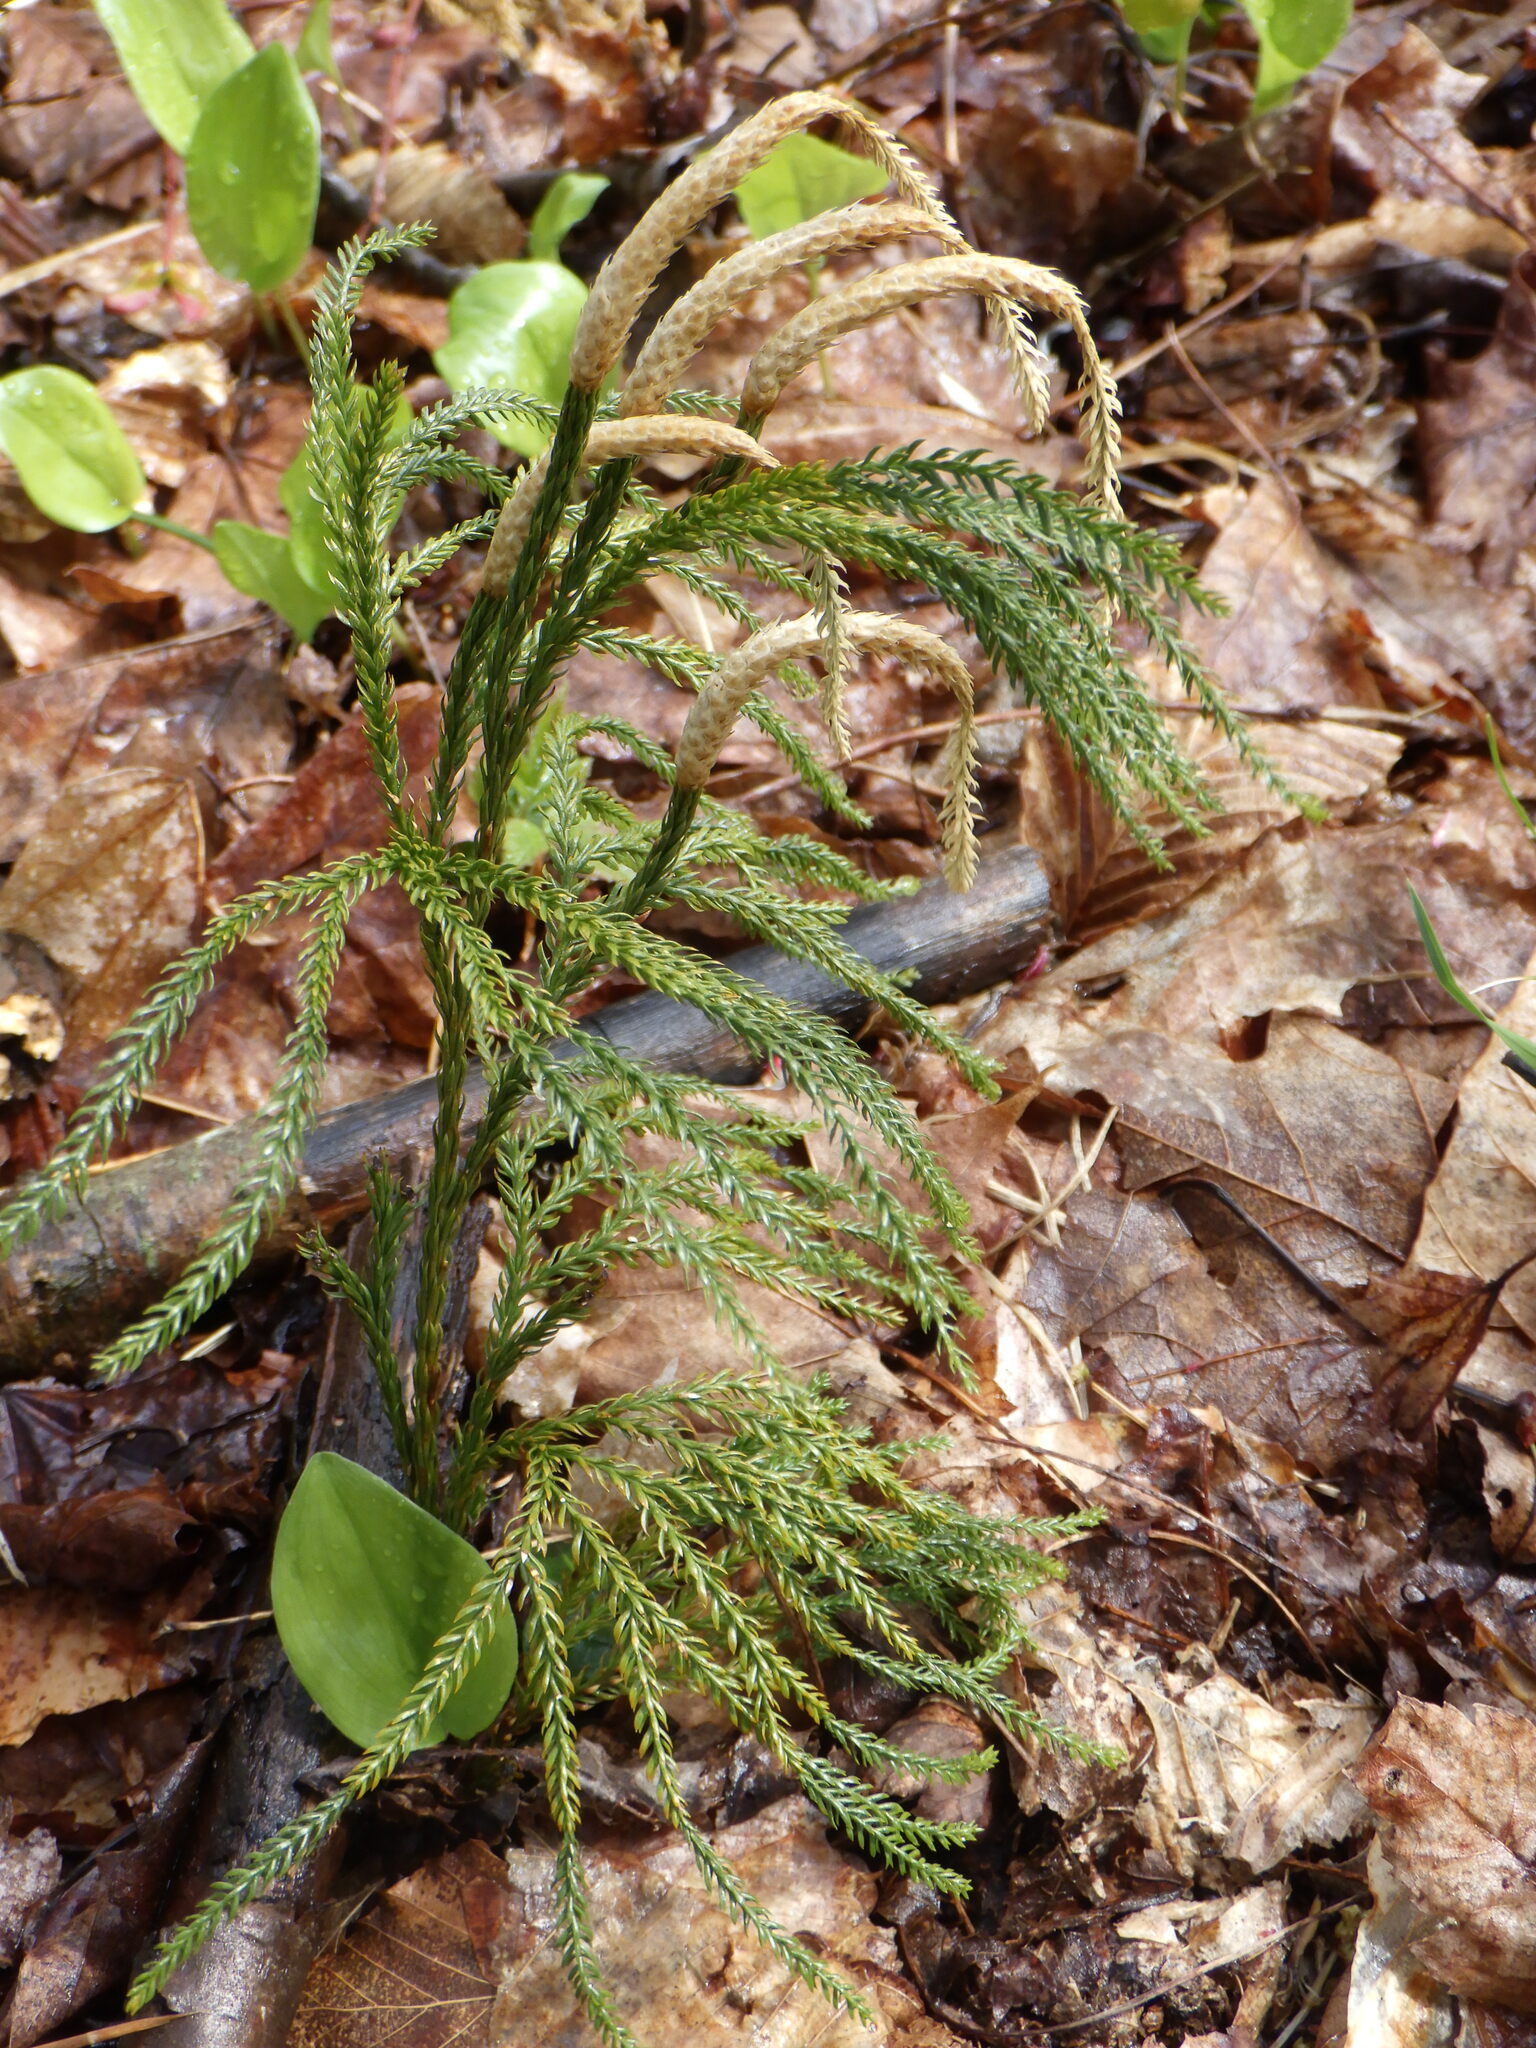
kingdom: Plantae
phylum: Tracheophyta
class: Lycopodiopsida
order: Lycopodiales
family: Lycopodiaceae
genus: Dendrolycopodium
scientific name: Dendrolycopodium obscurum
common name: Common ground-pine
